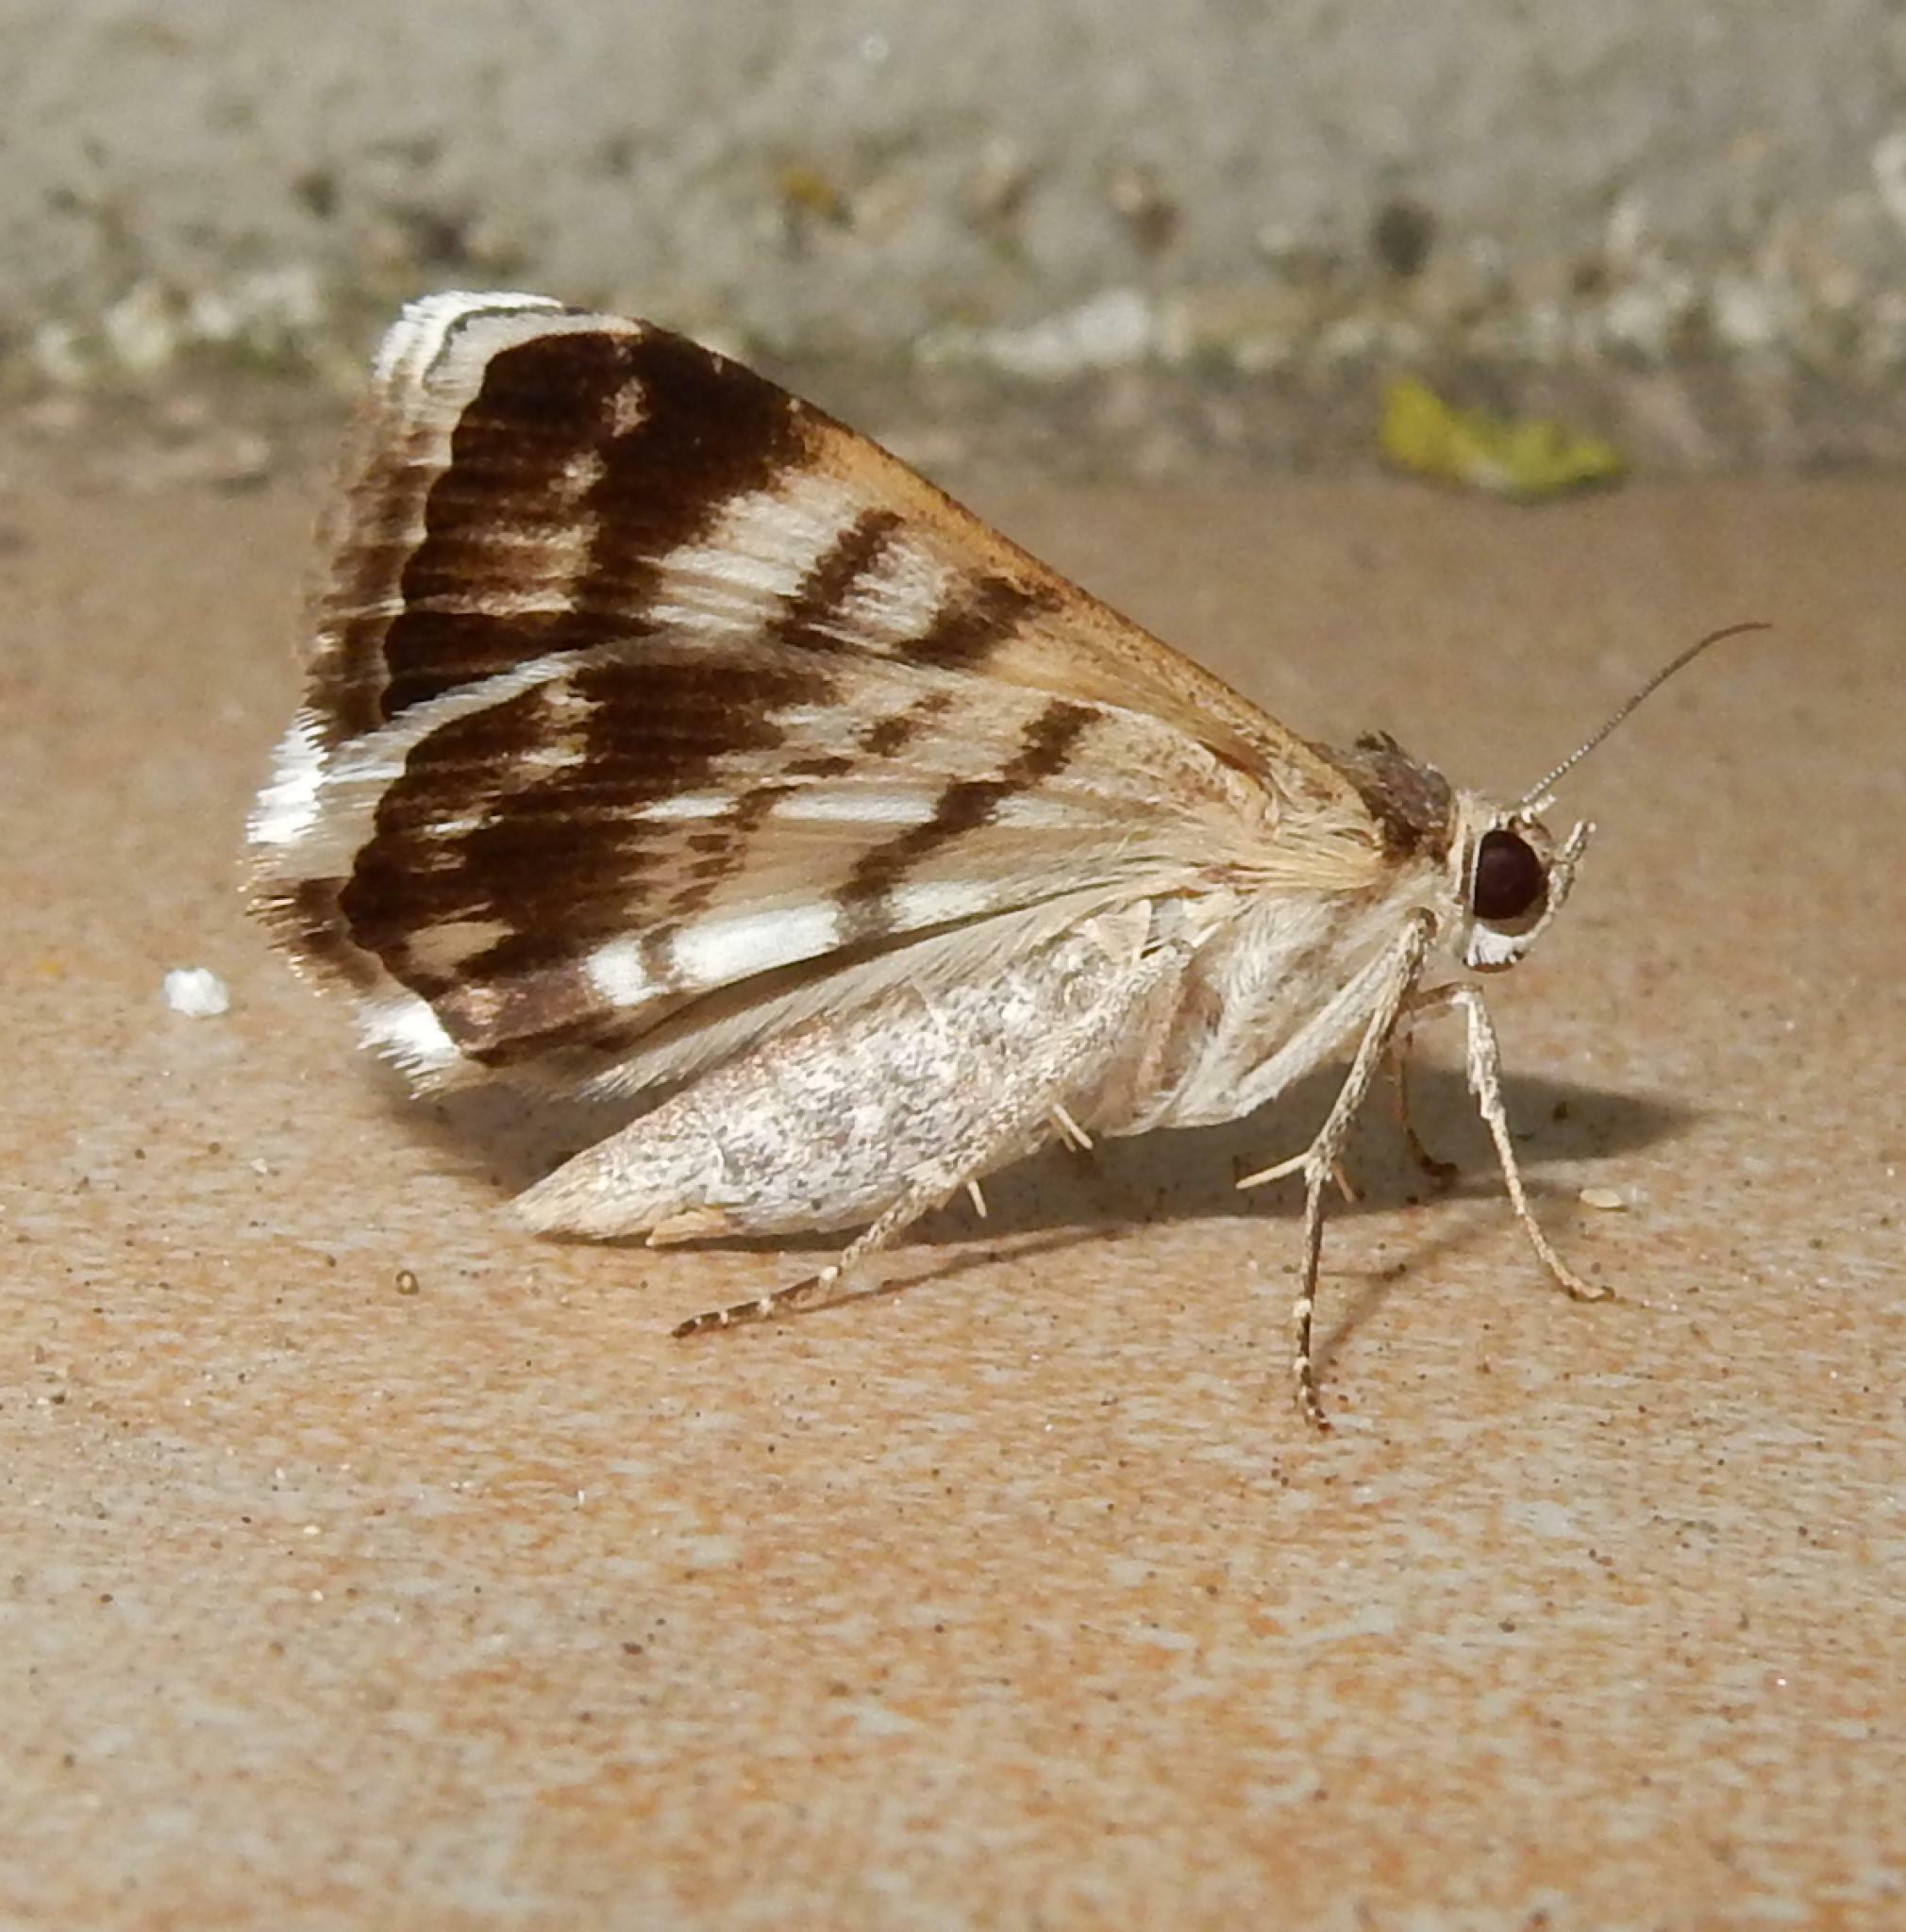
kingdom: Animalia
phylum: Arthropoda
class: Insecta
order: Lepidoptera
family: Erebidae
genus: Grammodes
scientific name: Grammodes stolida
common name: Geometrician
